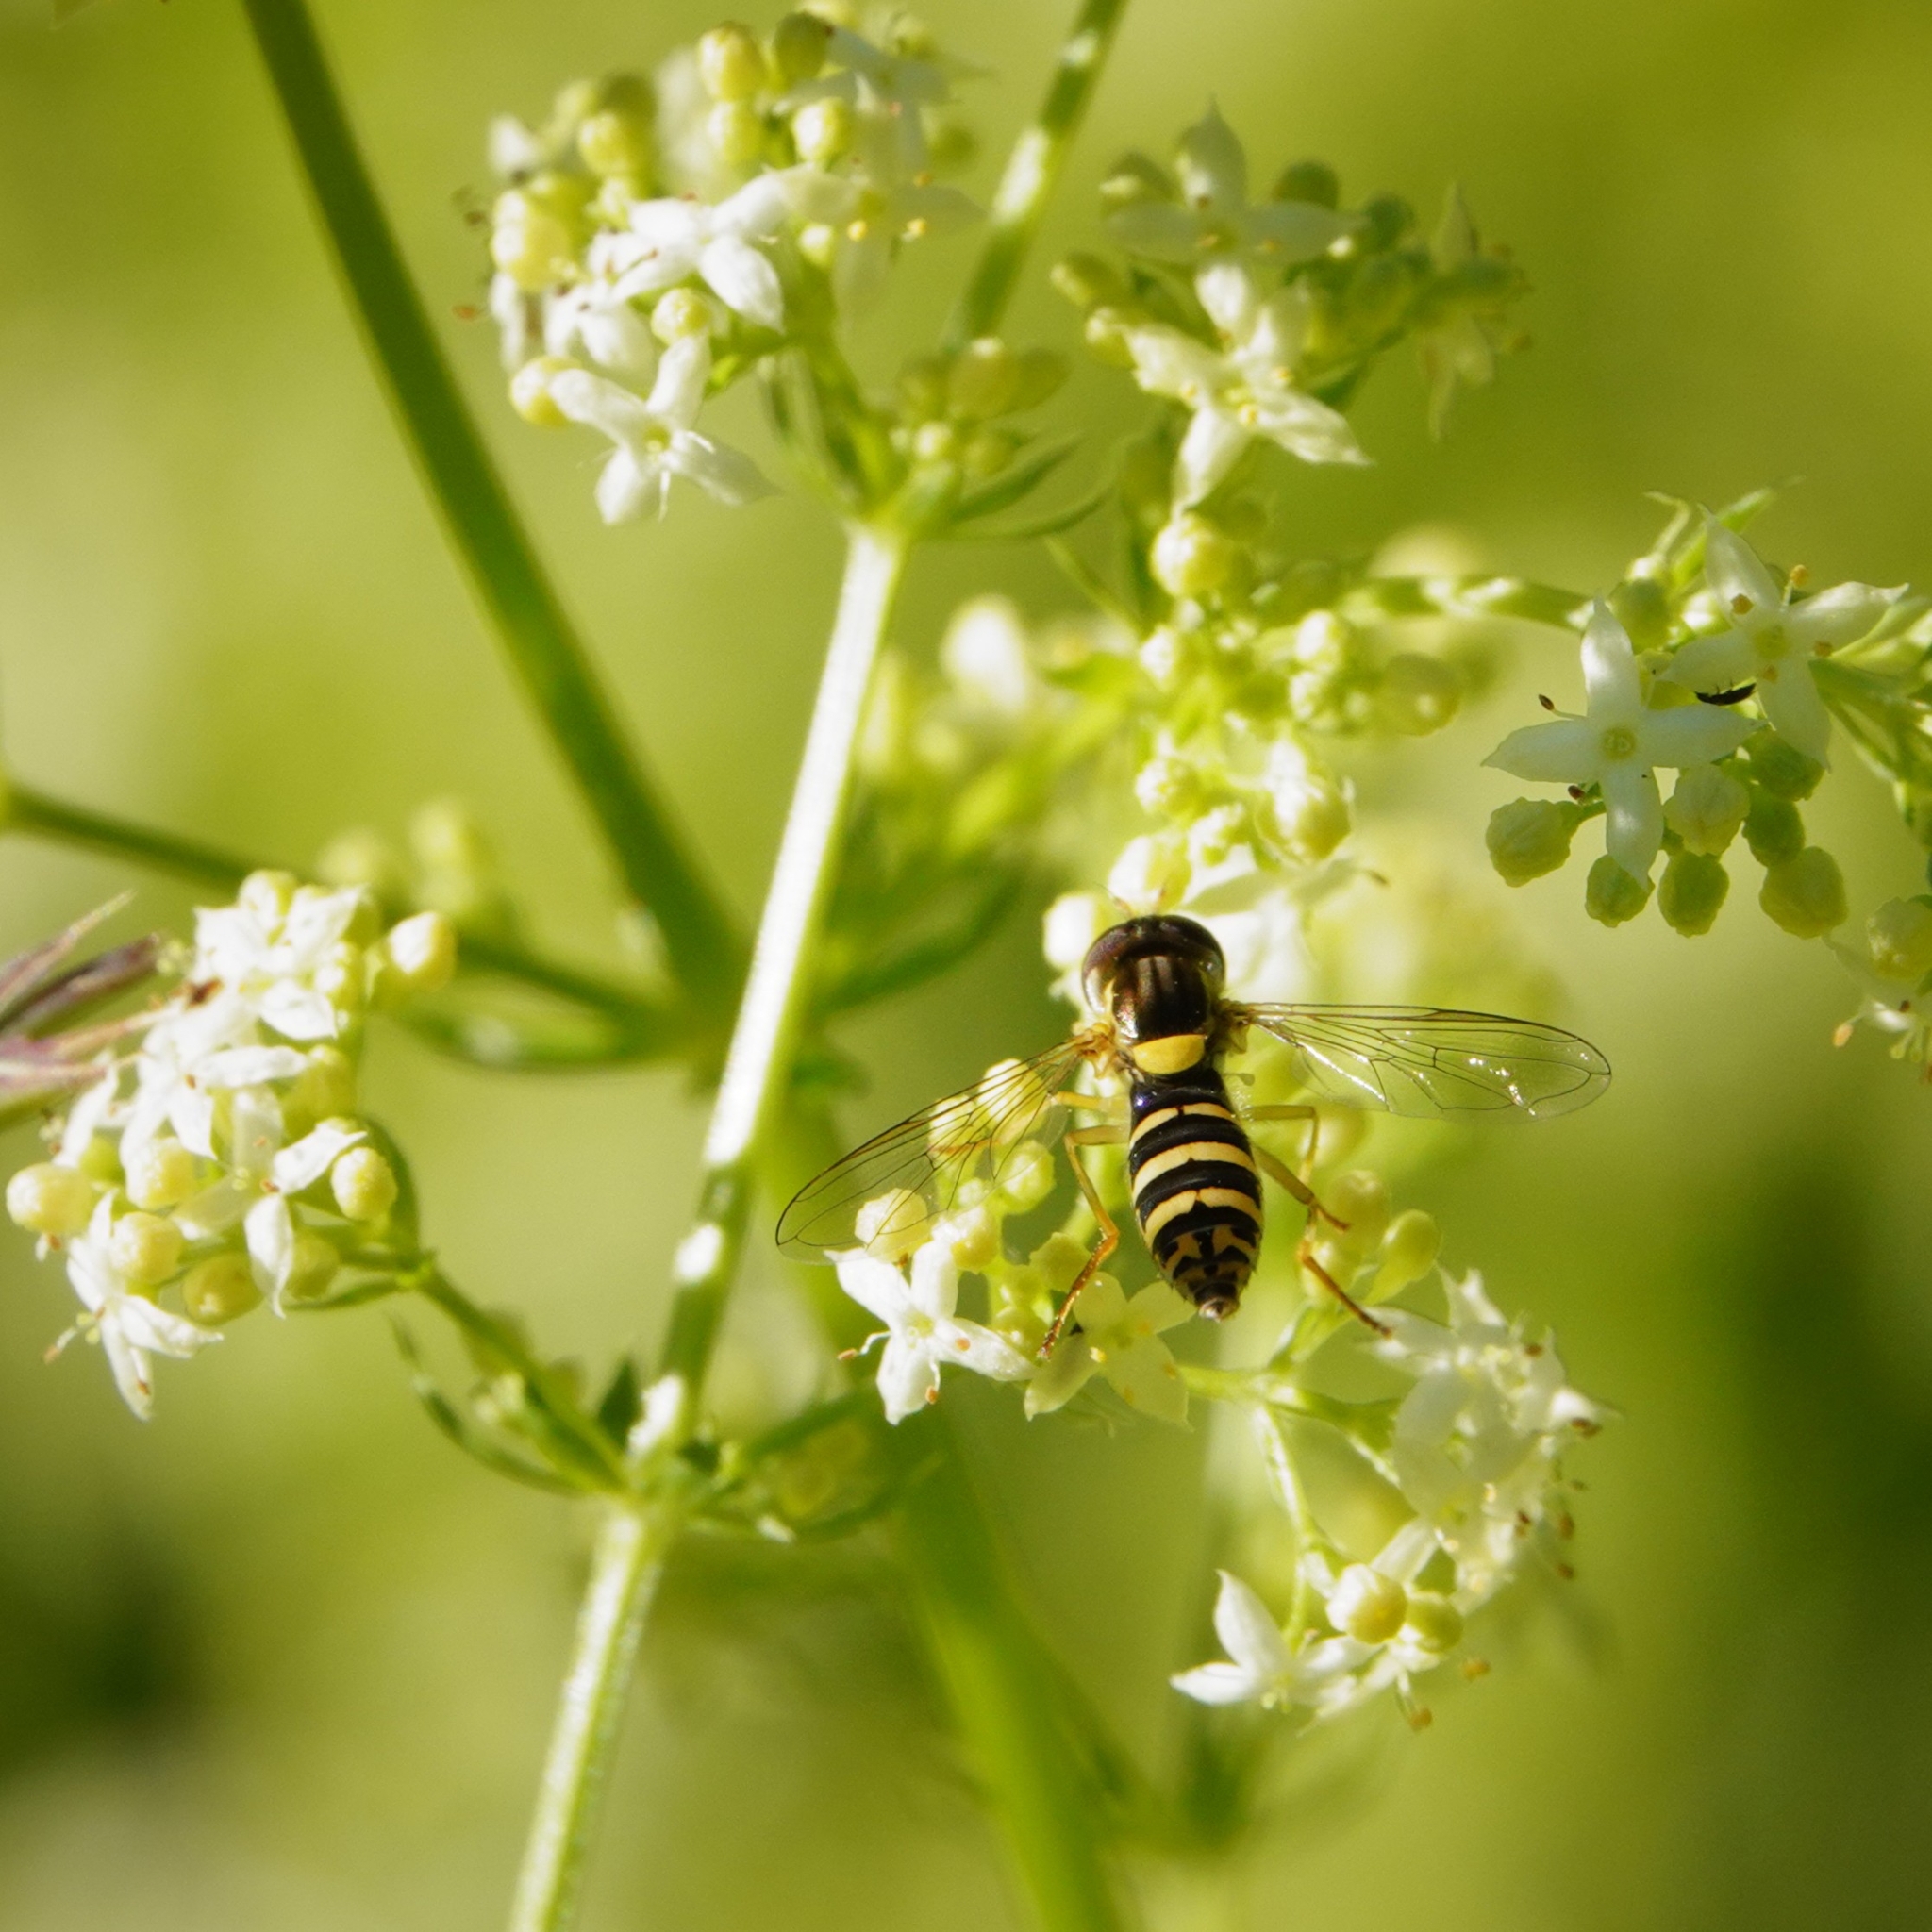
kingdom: Animalia
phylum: Arthropoda
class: Insecta
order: Diptera
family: Syrphidae
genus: Sphaerophoria
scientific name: Sphaerophoria
